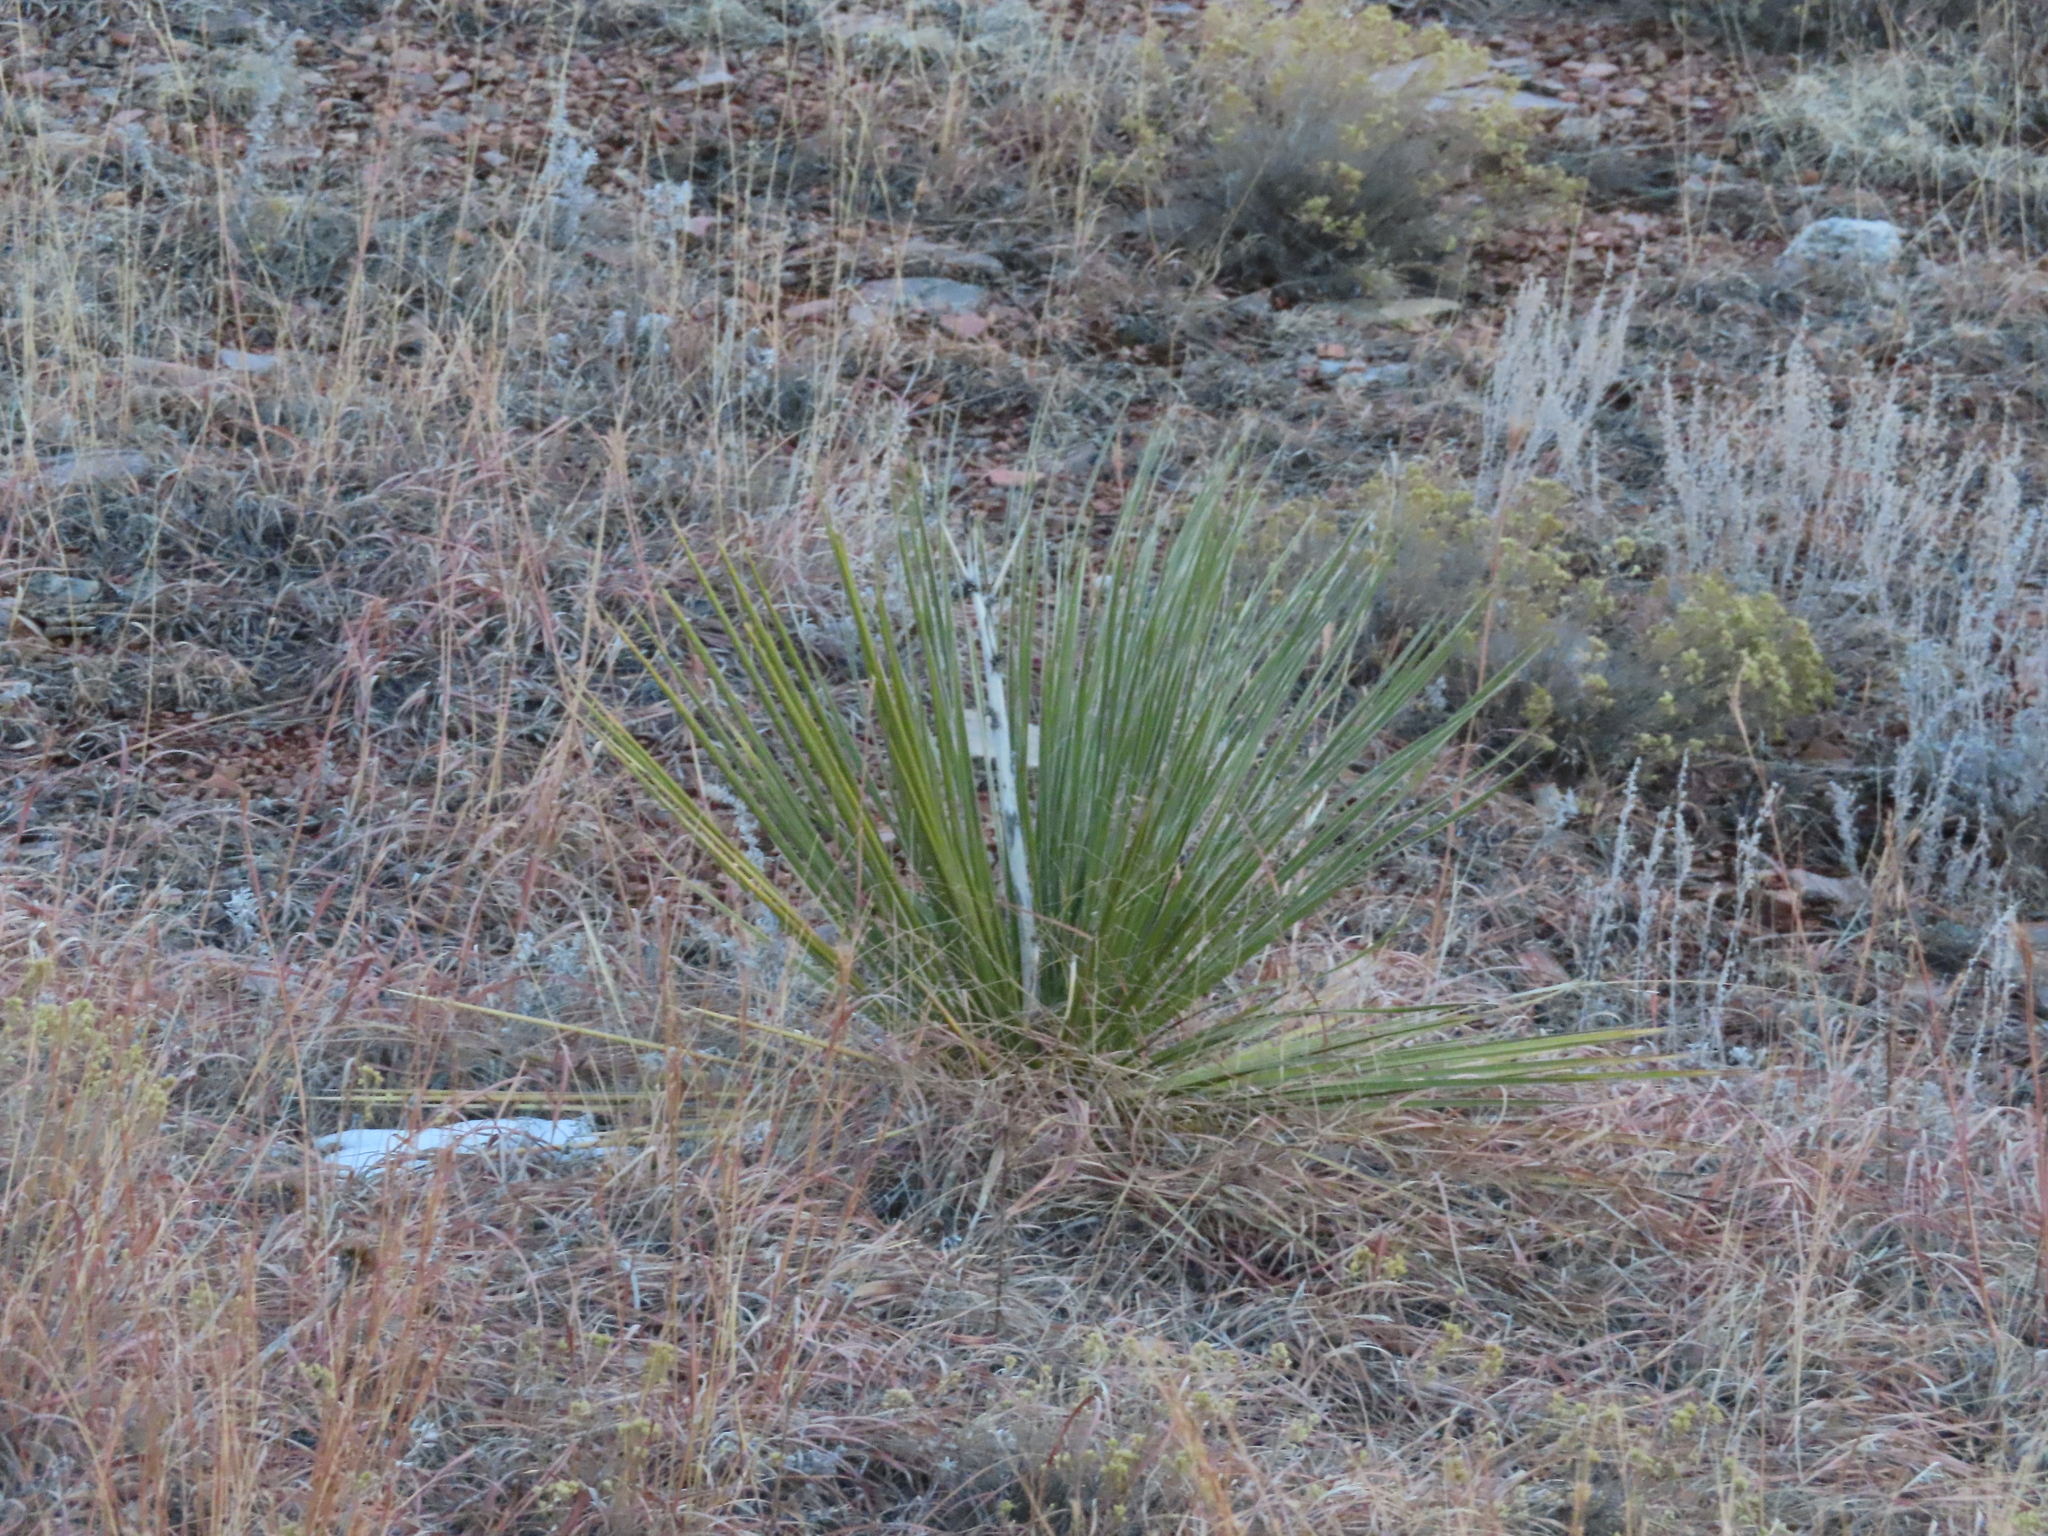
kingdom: Plantae
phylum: Tracheophyta
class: Liliopsida
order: Asparagales
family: Asparagaceae
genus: Yucca
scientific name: Yucca glauca
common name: Great plains yucca
